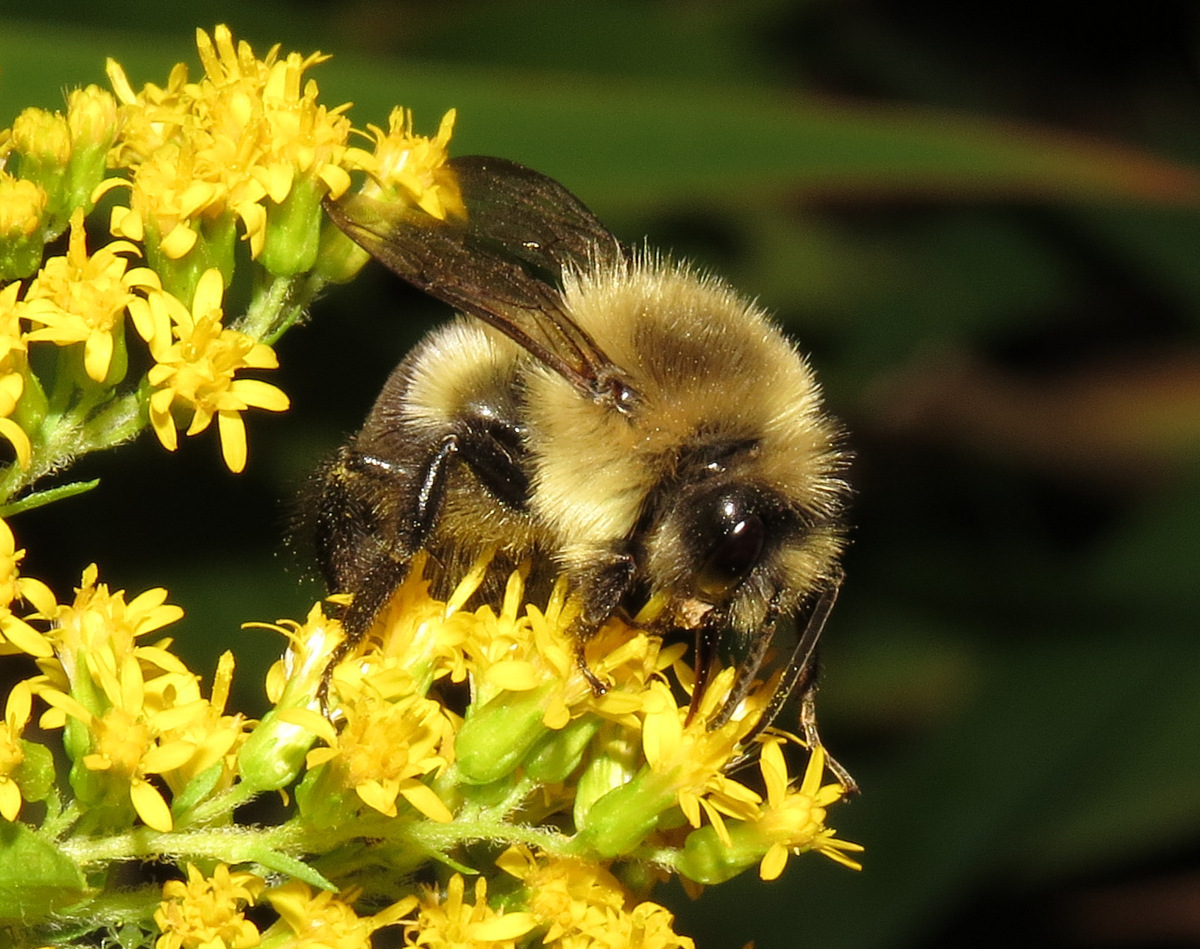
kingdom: Animalia
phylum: Arthropoda
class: Insecta
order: Hymenoptera
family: Apidae
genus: Bombus
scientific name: Bombus impatiens
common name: Common eastern bumble bee
